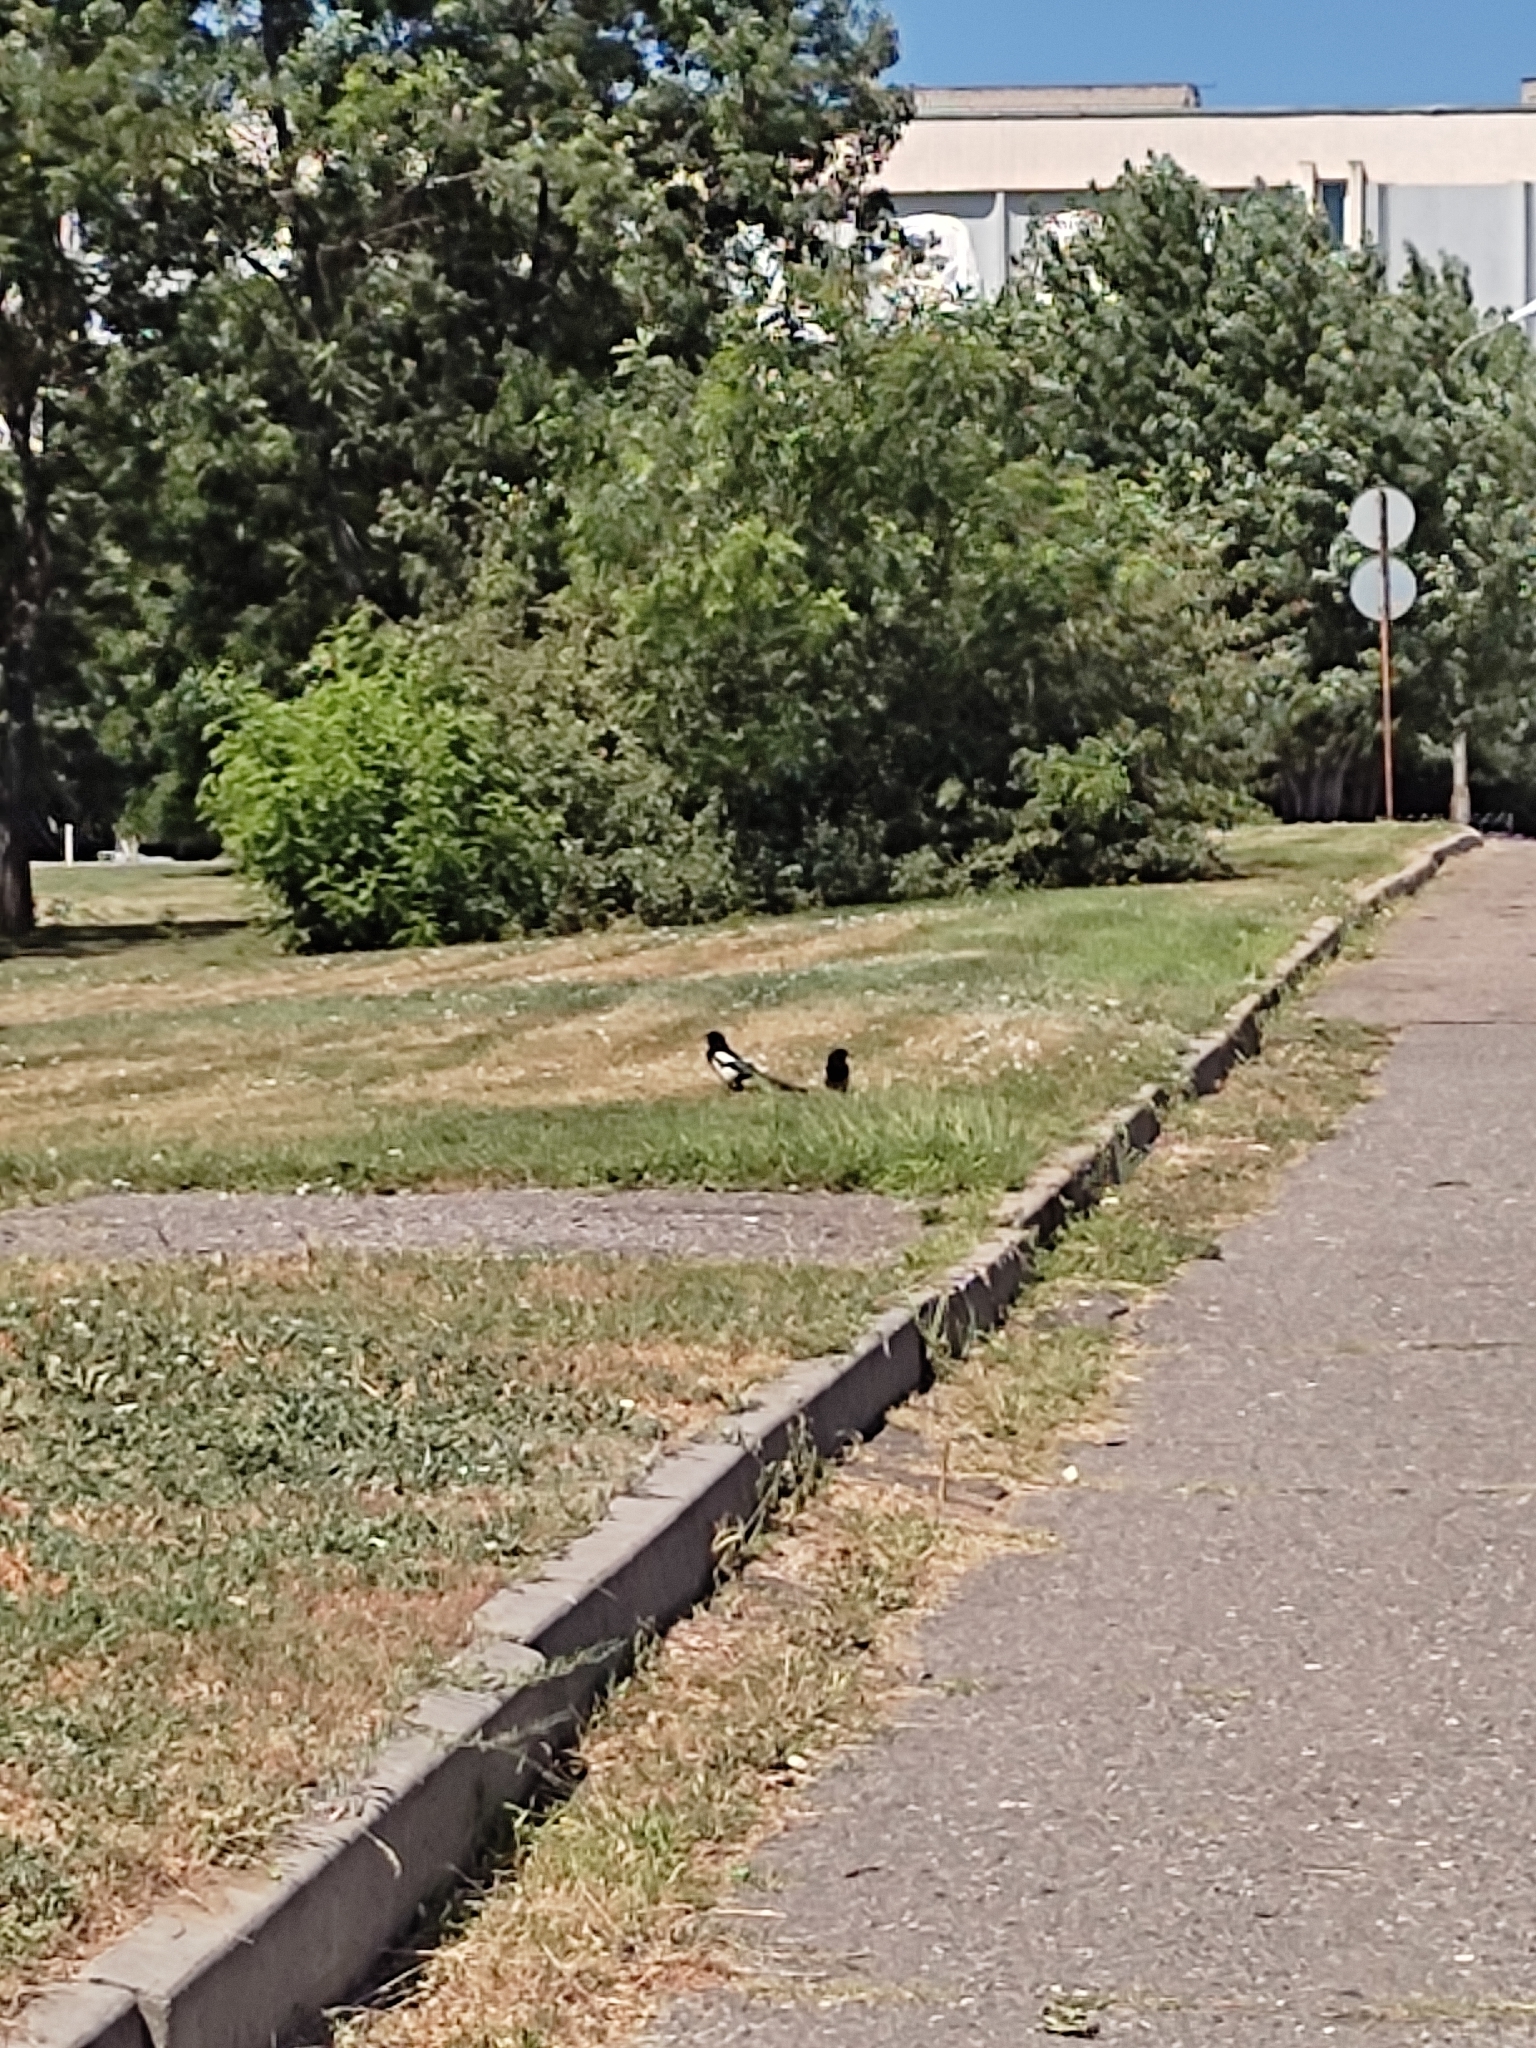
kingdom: Animalia
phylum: Chordata
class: Aves
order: Passeriformes
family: Corvidae
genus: Pica
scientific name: Pica pica
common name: Eurasian magpie
